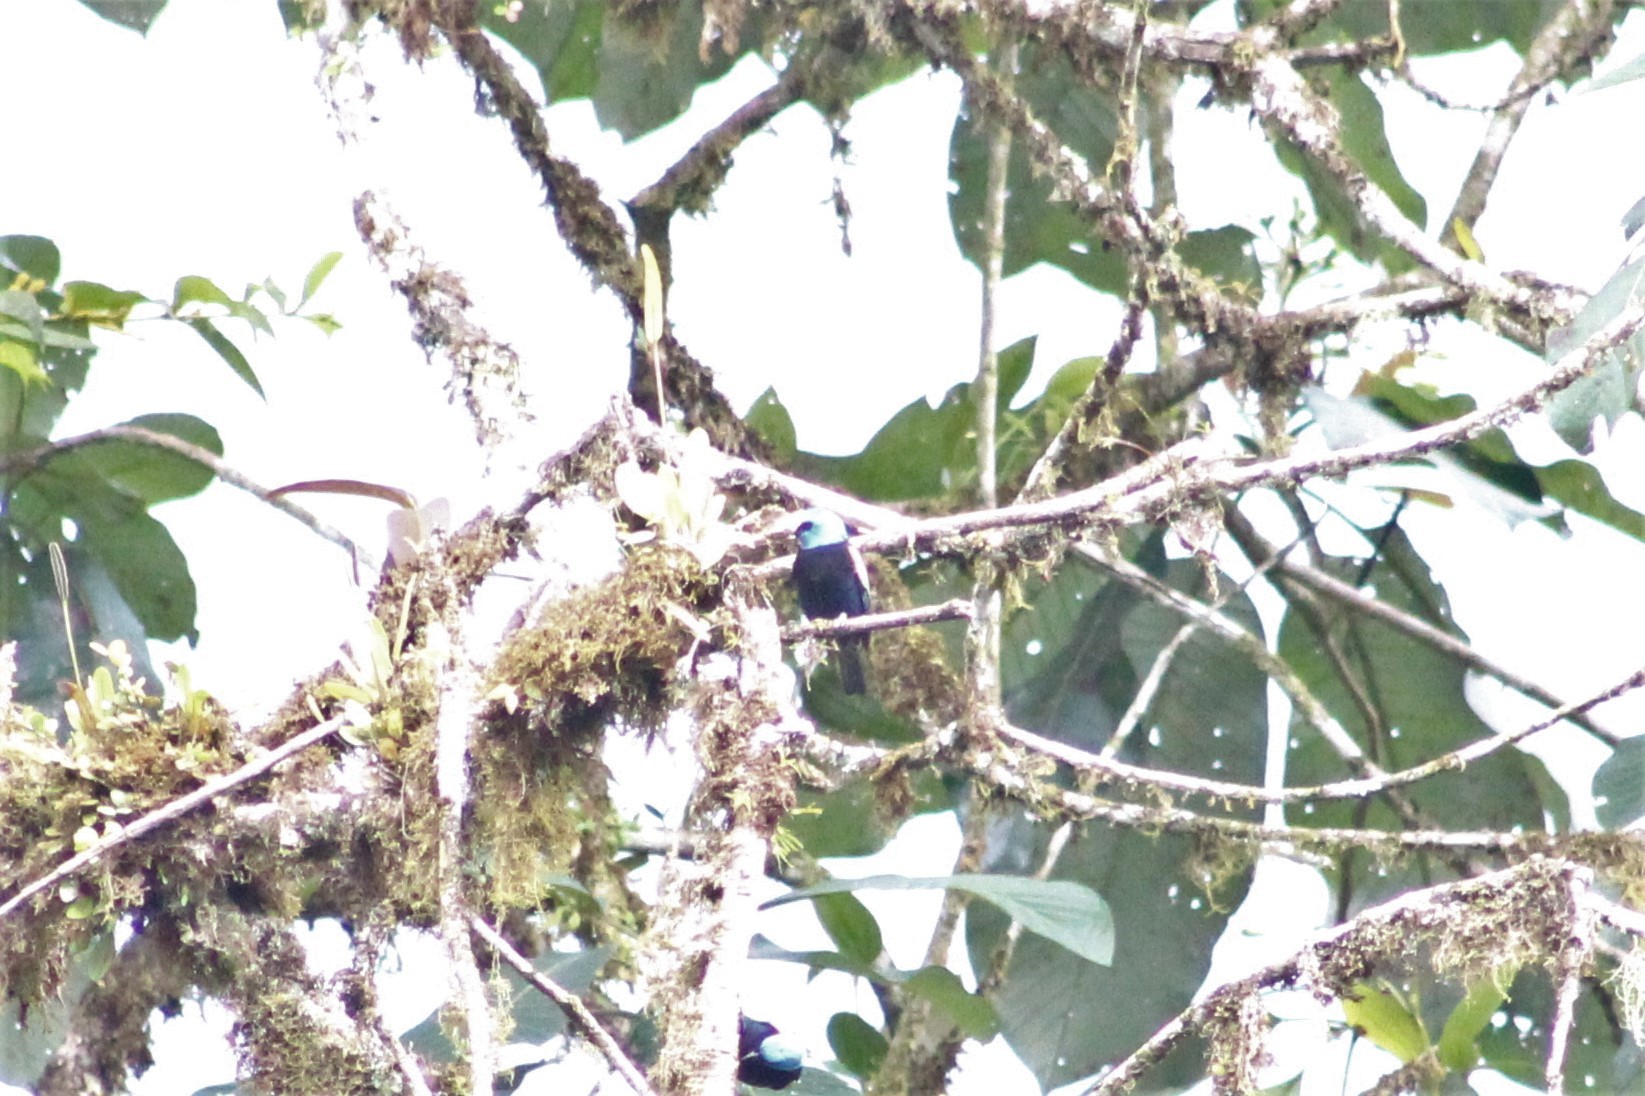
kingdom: Animalia
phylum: Chordata
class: Aves
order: Passeriformes
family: Thraupidae
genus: Stilpnia
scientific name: Stilpnia cyanicollis
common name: Blue-necked tanager
